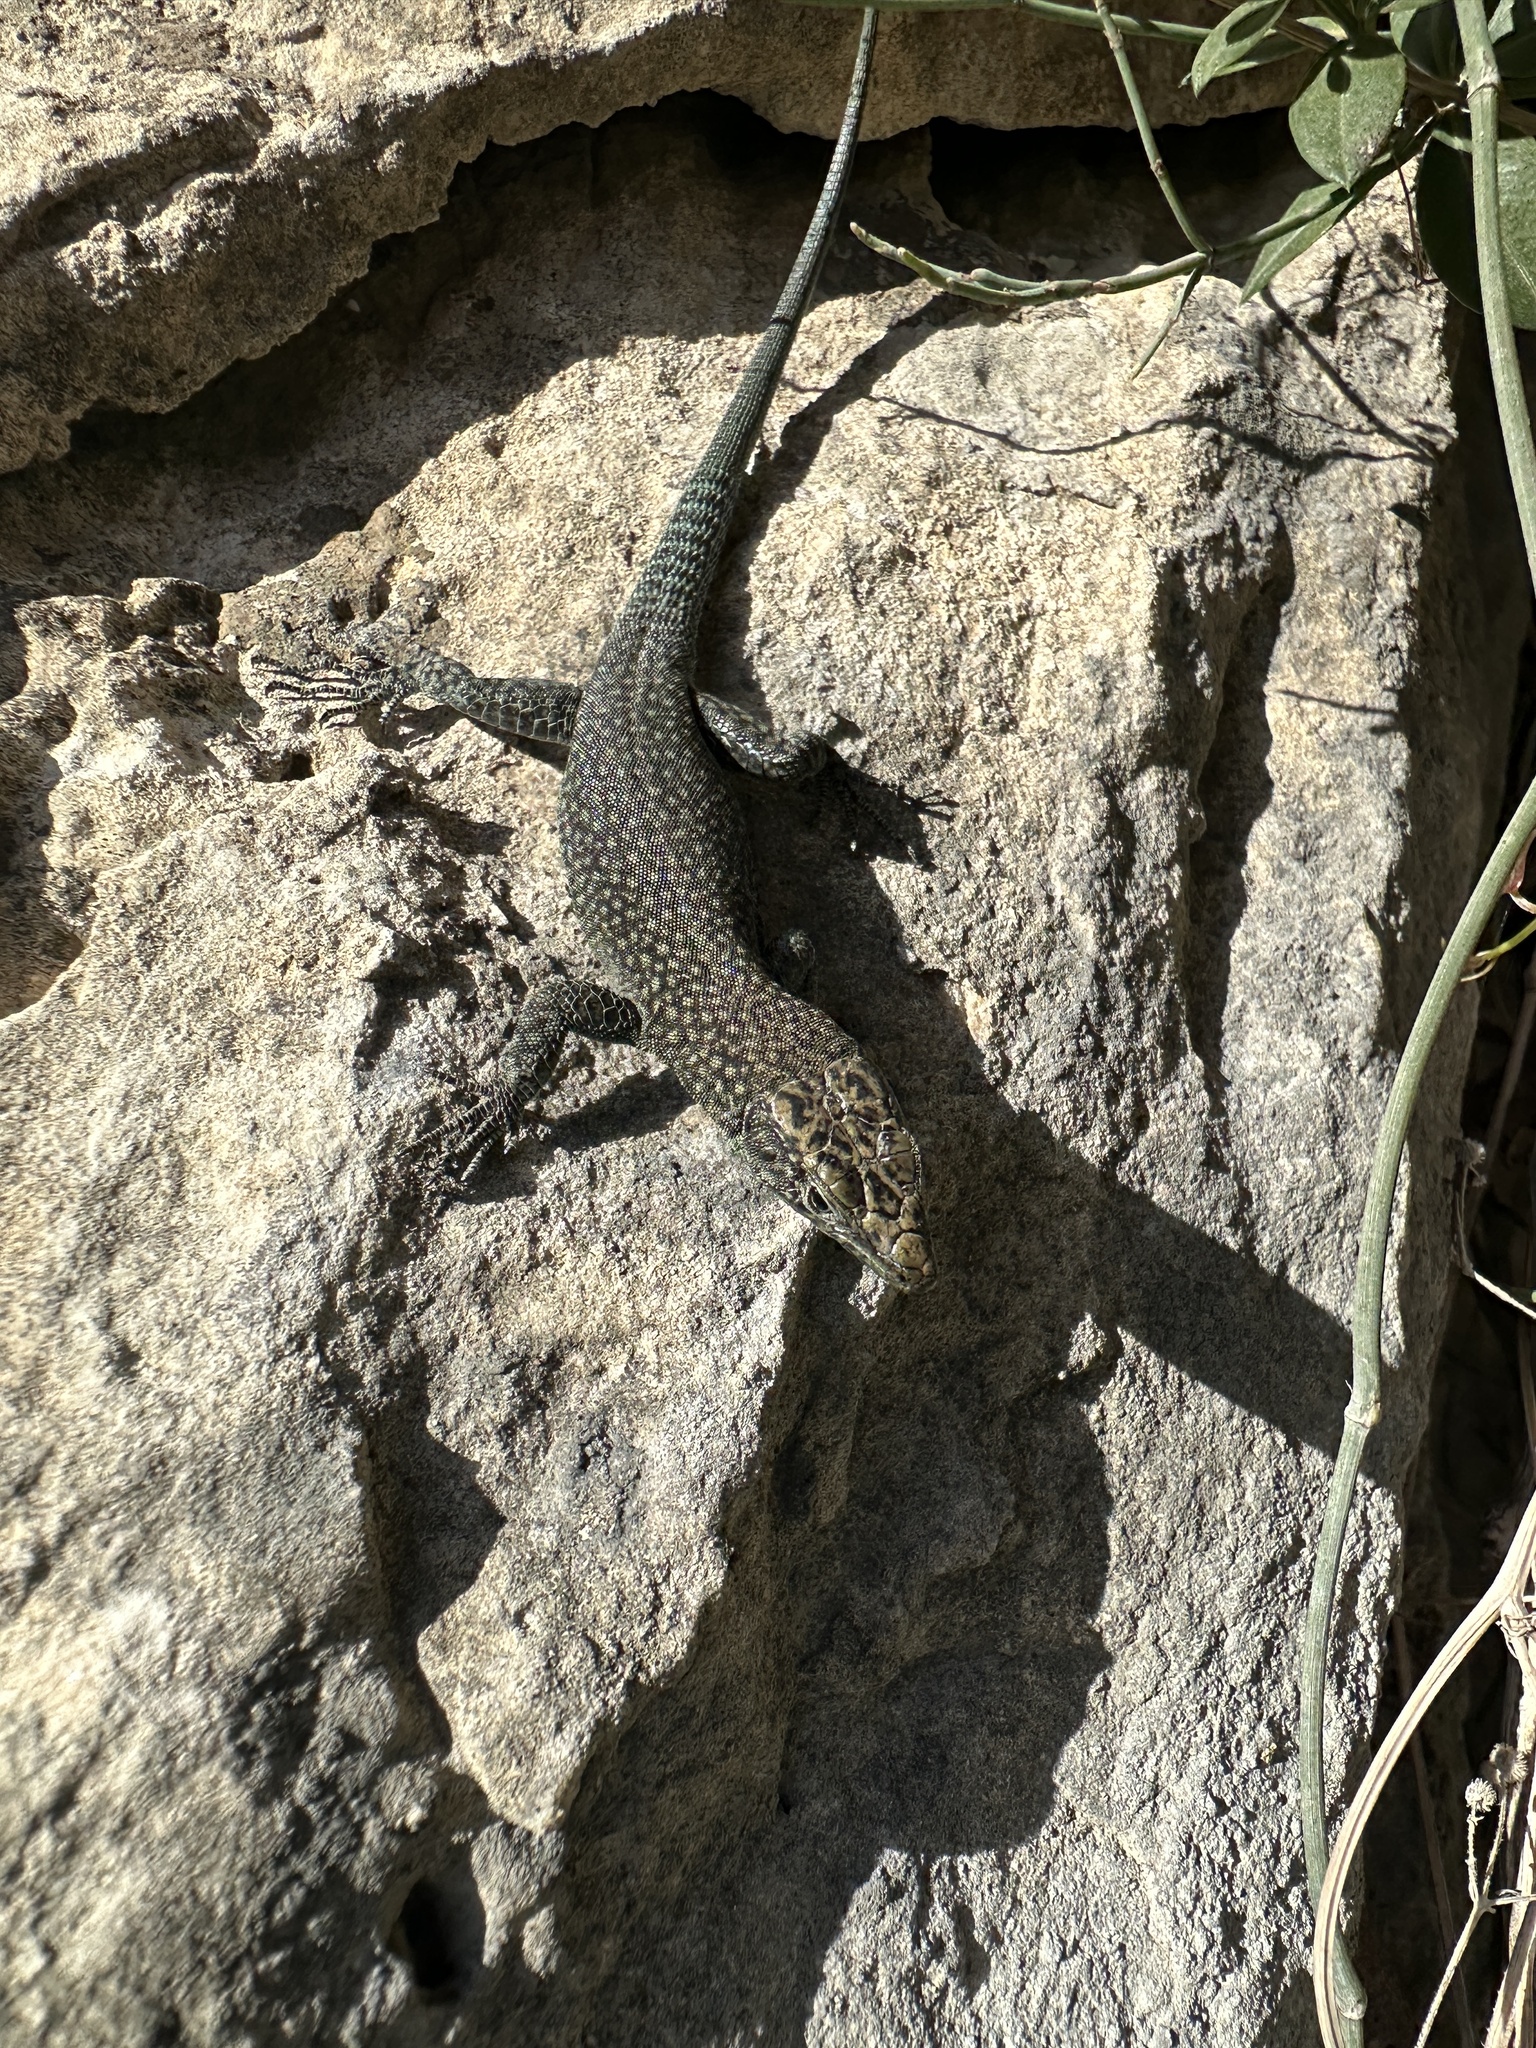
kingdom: Animalia
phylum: Chordata
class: Squamata
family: Lacertidae
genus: Dalmatolacerta
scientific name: Dalmatolacerta oxycephala
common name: Sharp-snouted rock lizard
